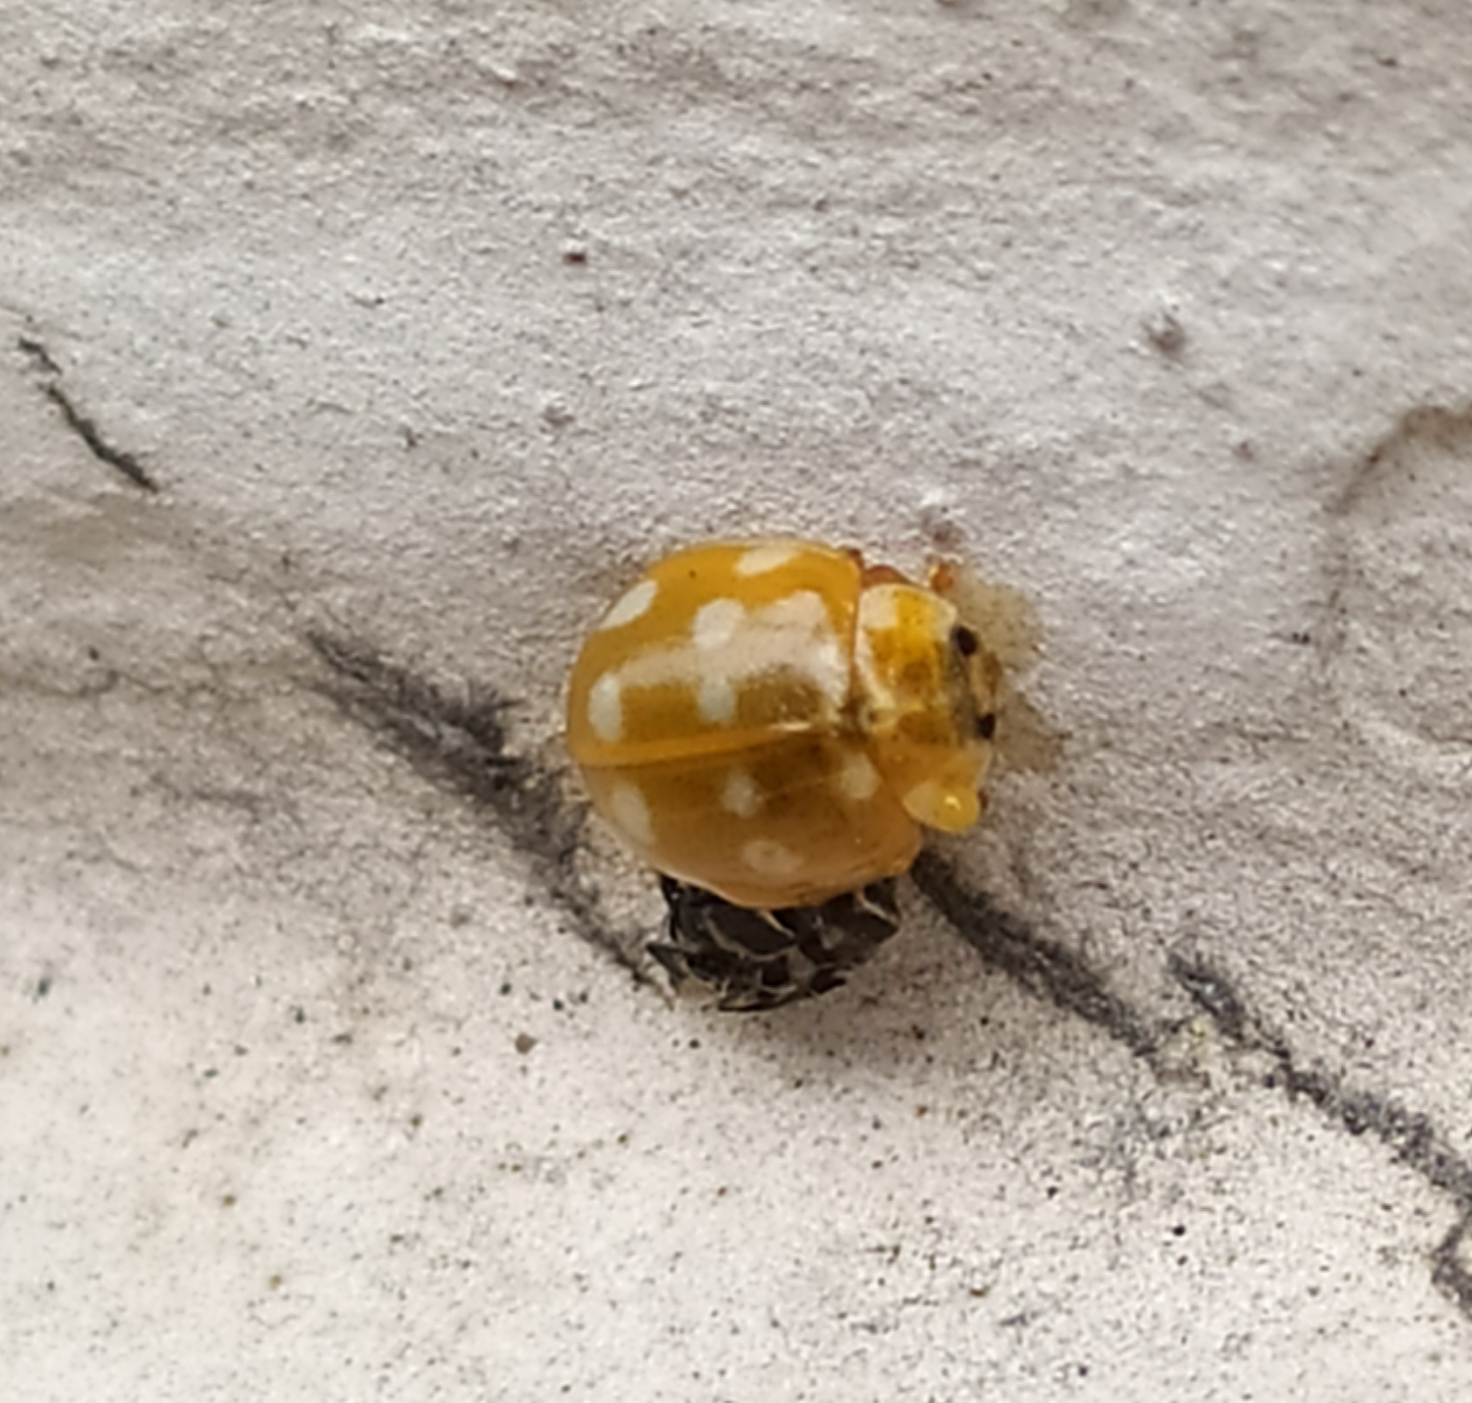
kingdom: Animalia
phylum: Arthropoda
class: Insecta
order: Coleoptera
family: Coccinellidae
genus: Calvia
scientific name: Calvia quatuordecimguttata
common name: Cream-spot ladybird
